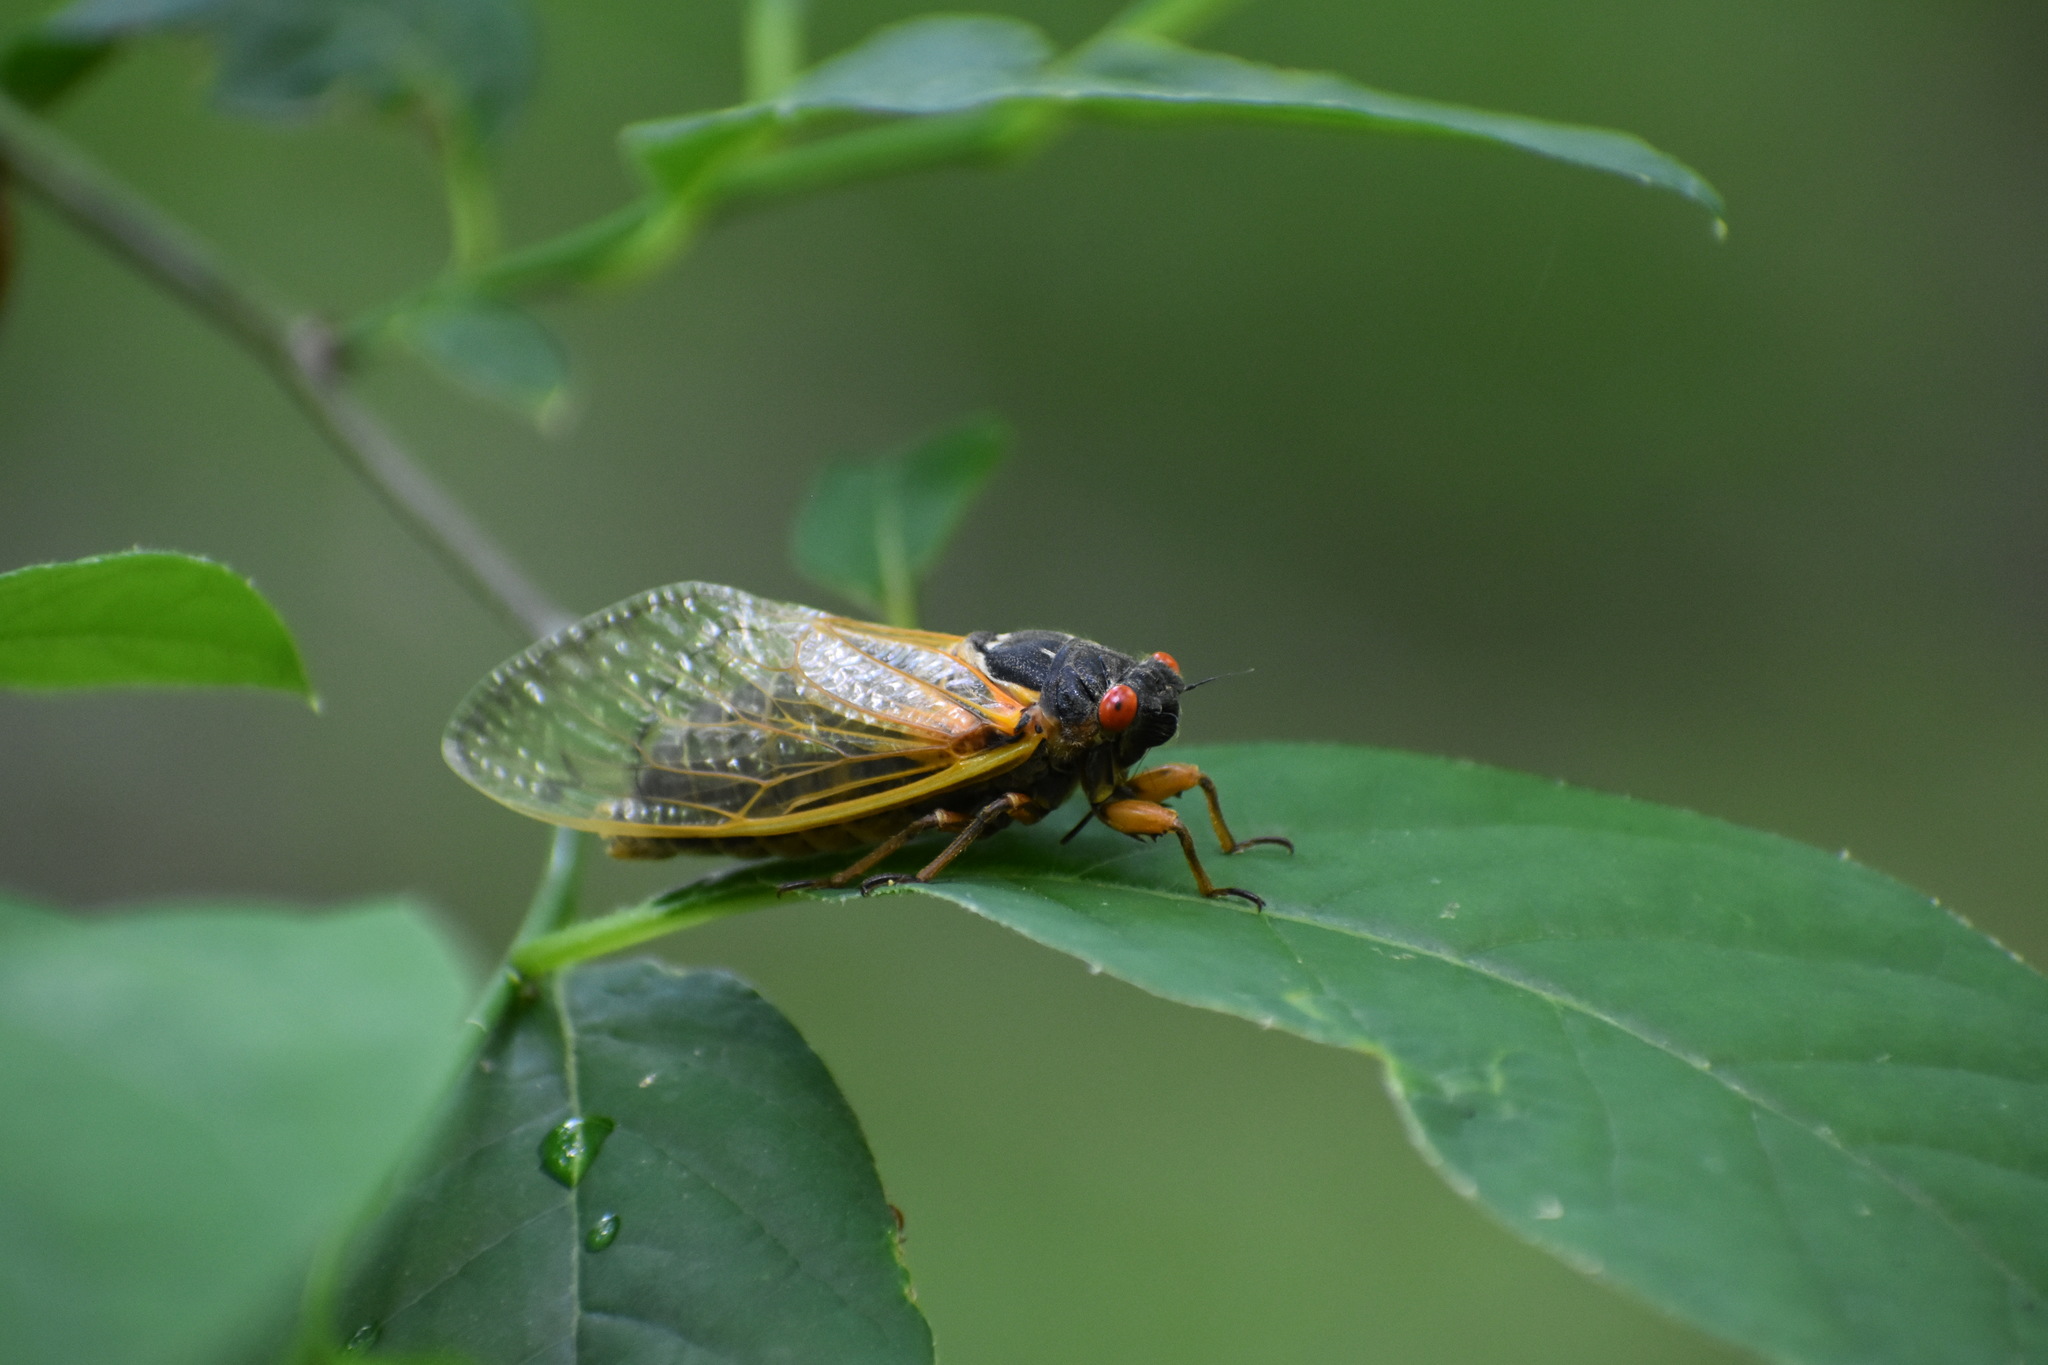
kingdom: Animalia
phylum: Arthropoda
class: Insecta
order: Hemiptera
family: Cicadidae
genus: Magicicada
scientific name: Magicicada septendecim
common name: Periodical cicada
